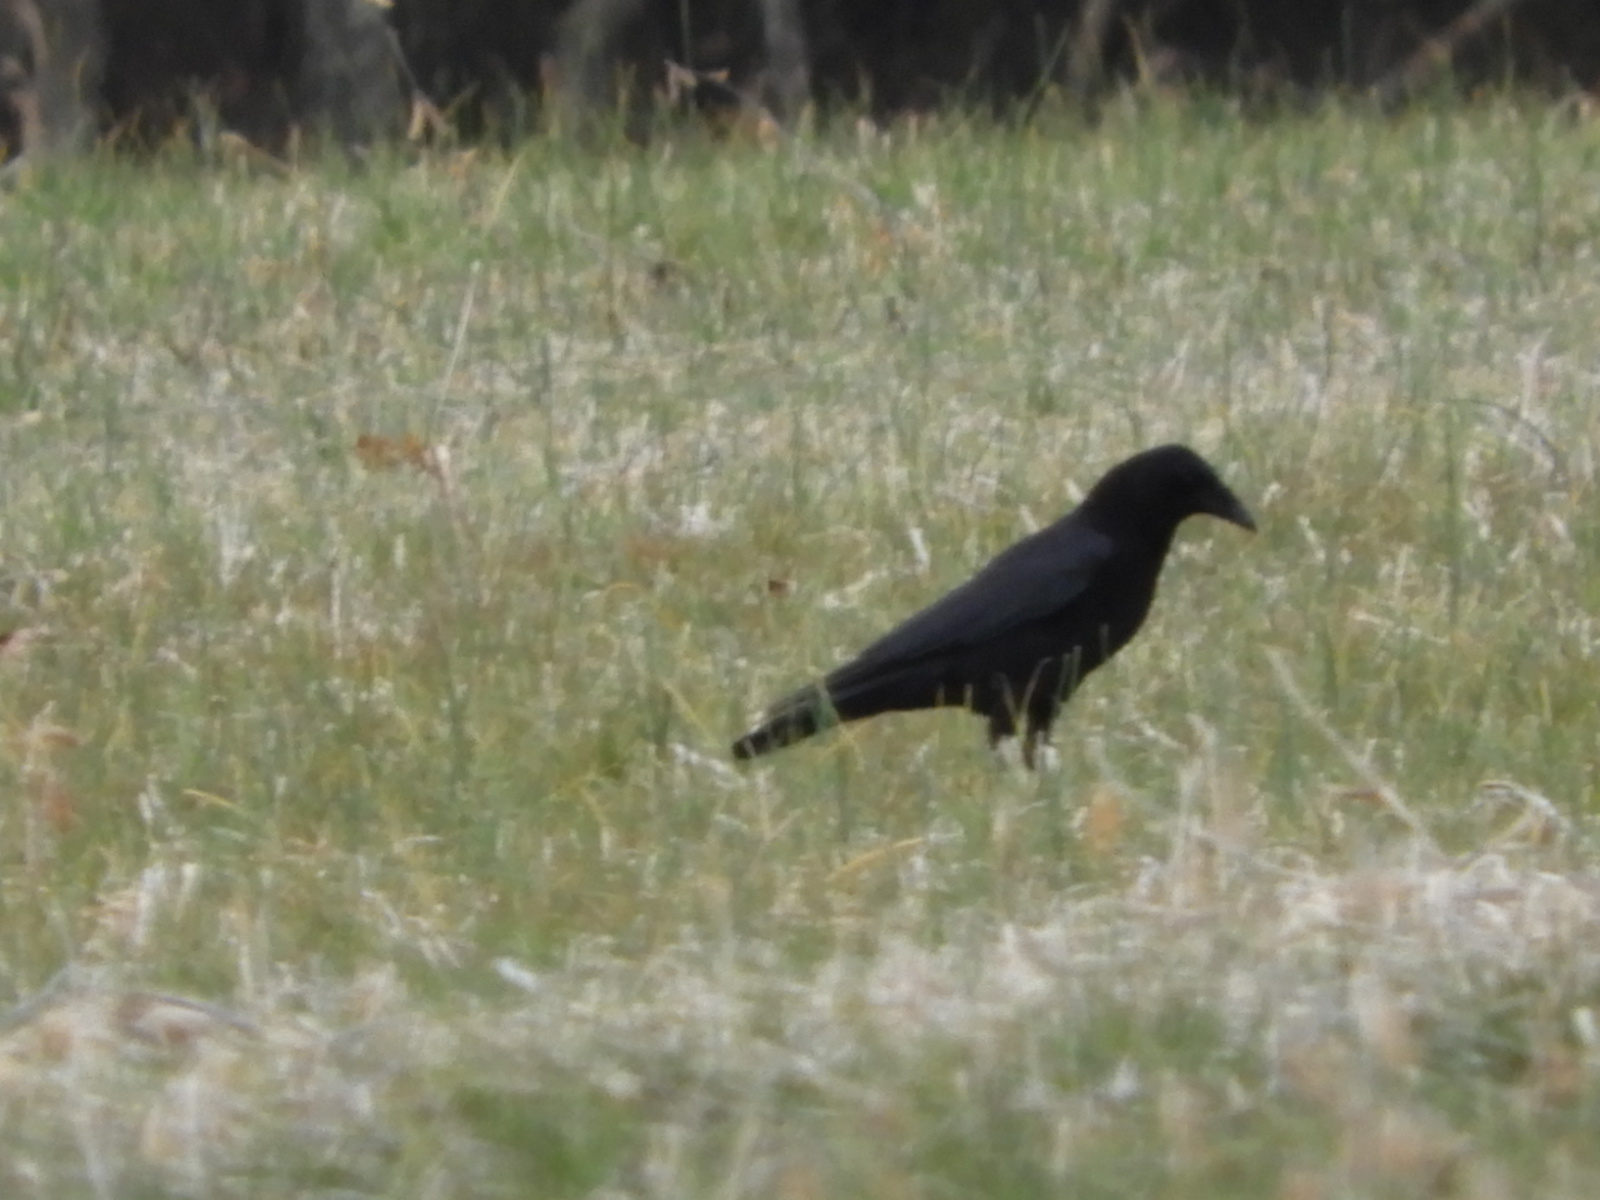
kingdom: Animalia
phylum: Chordata
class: Aves
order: Passeriformes
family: Corvidae
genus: Corvus
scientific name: Corvus
